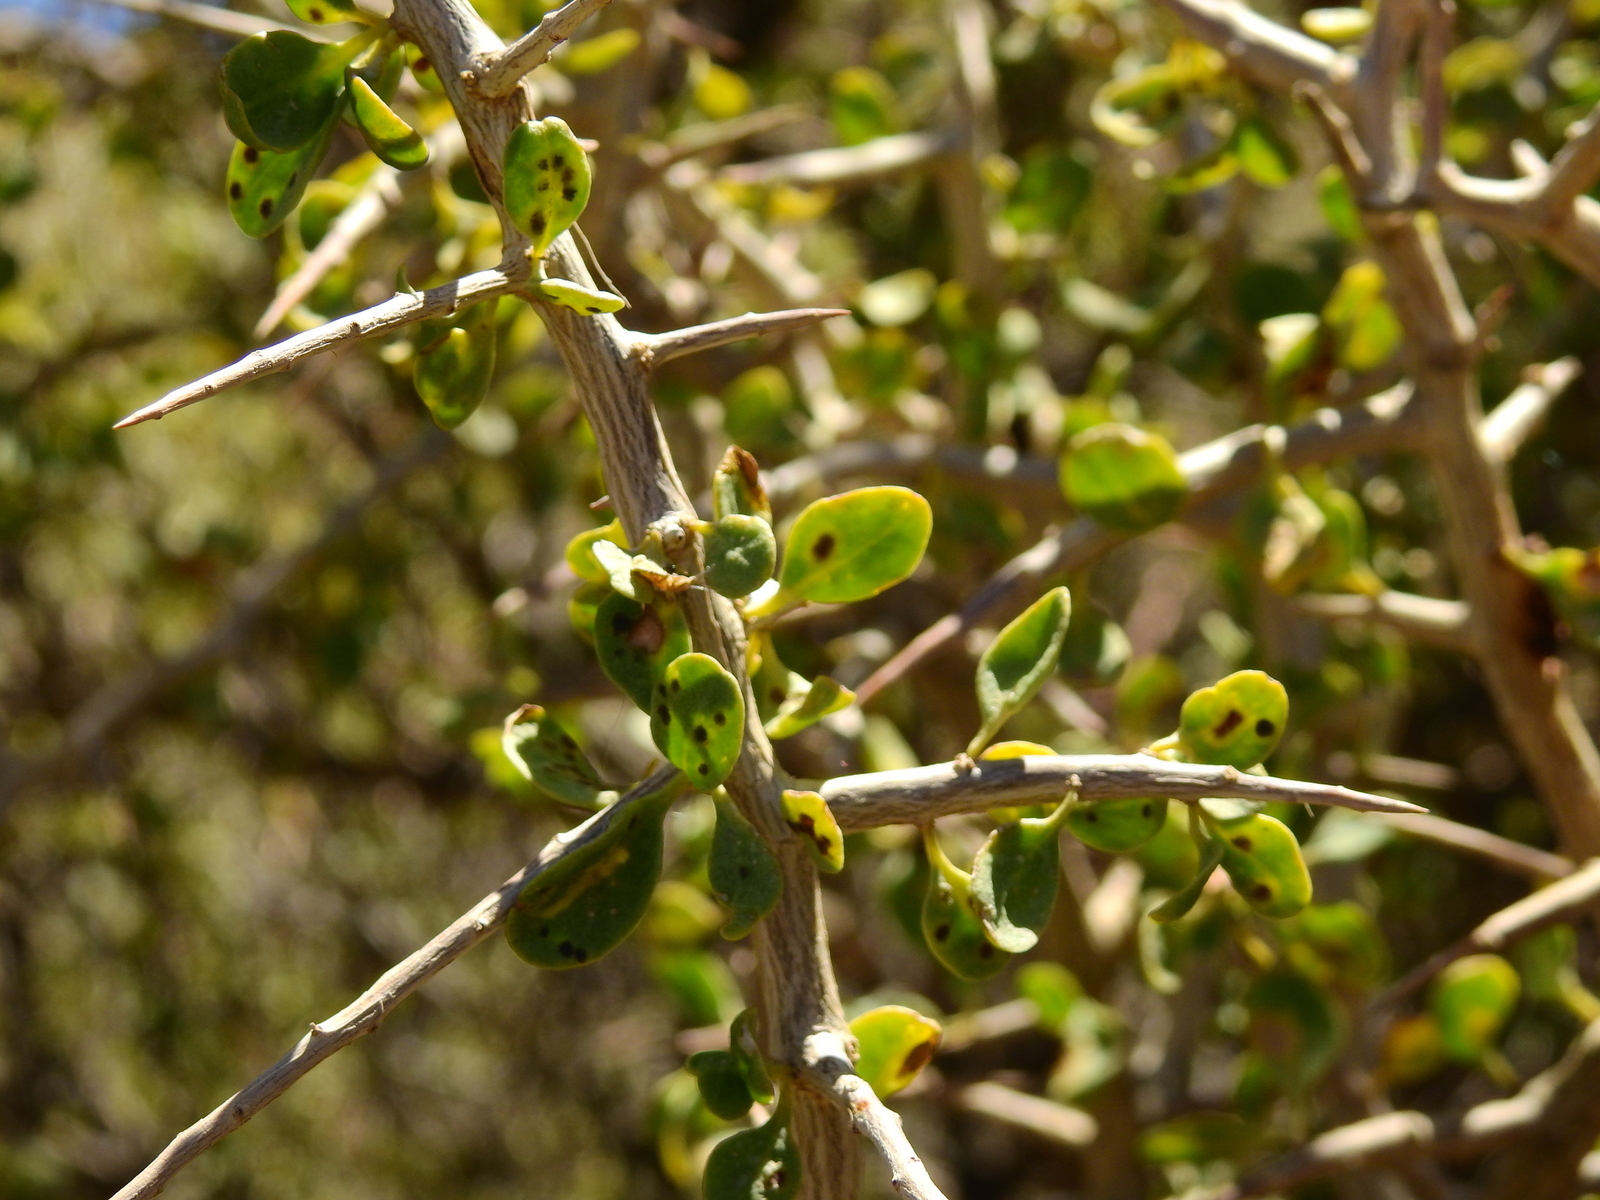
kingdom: Plantae
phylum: Tracheophyta
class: Magnoliopsida
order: Sapindales
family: Anacardiaceae
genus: Schinus
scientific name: Schinus marchandii
